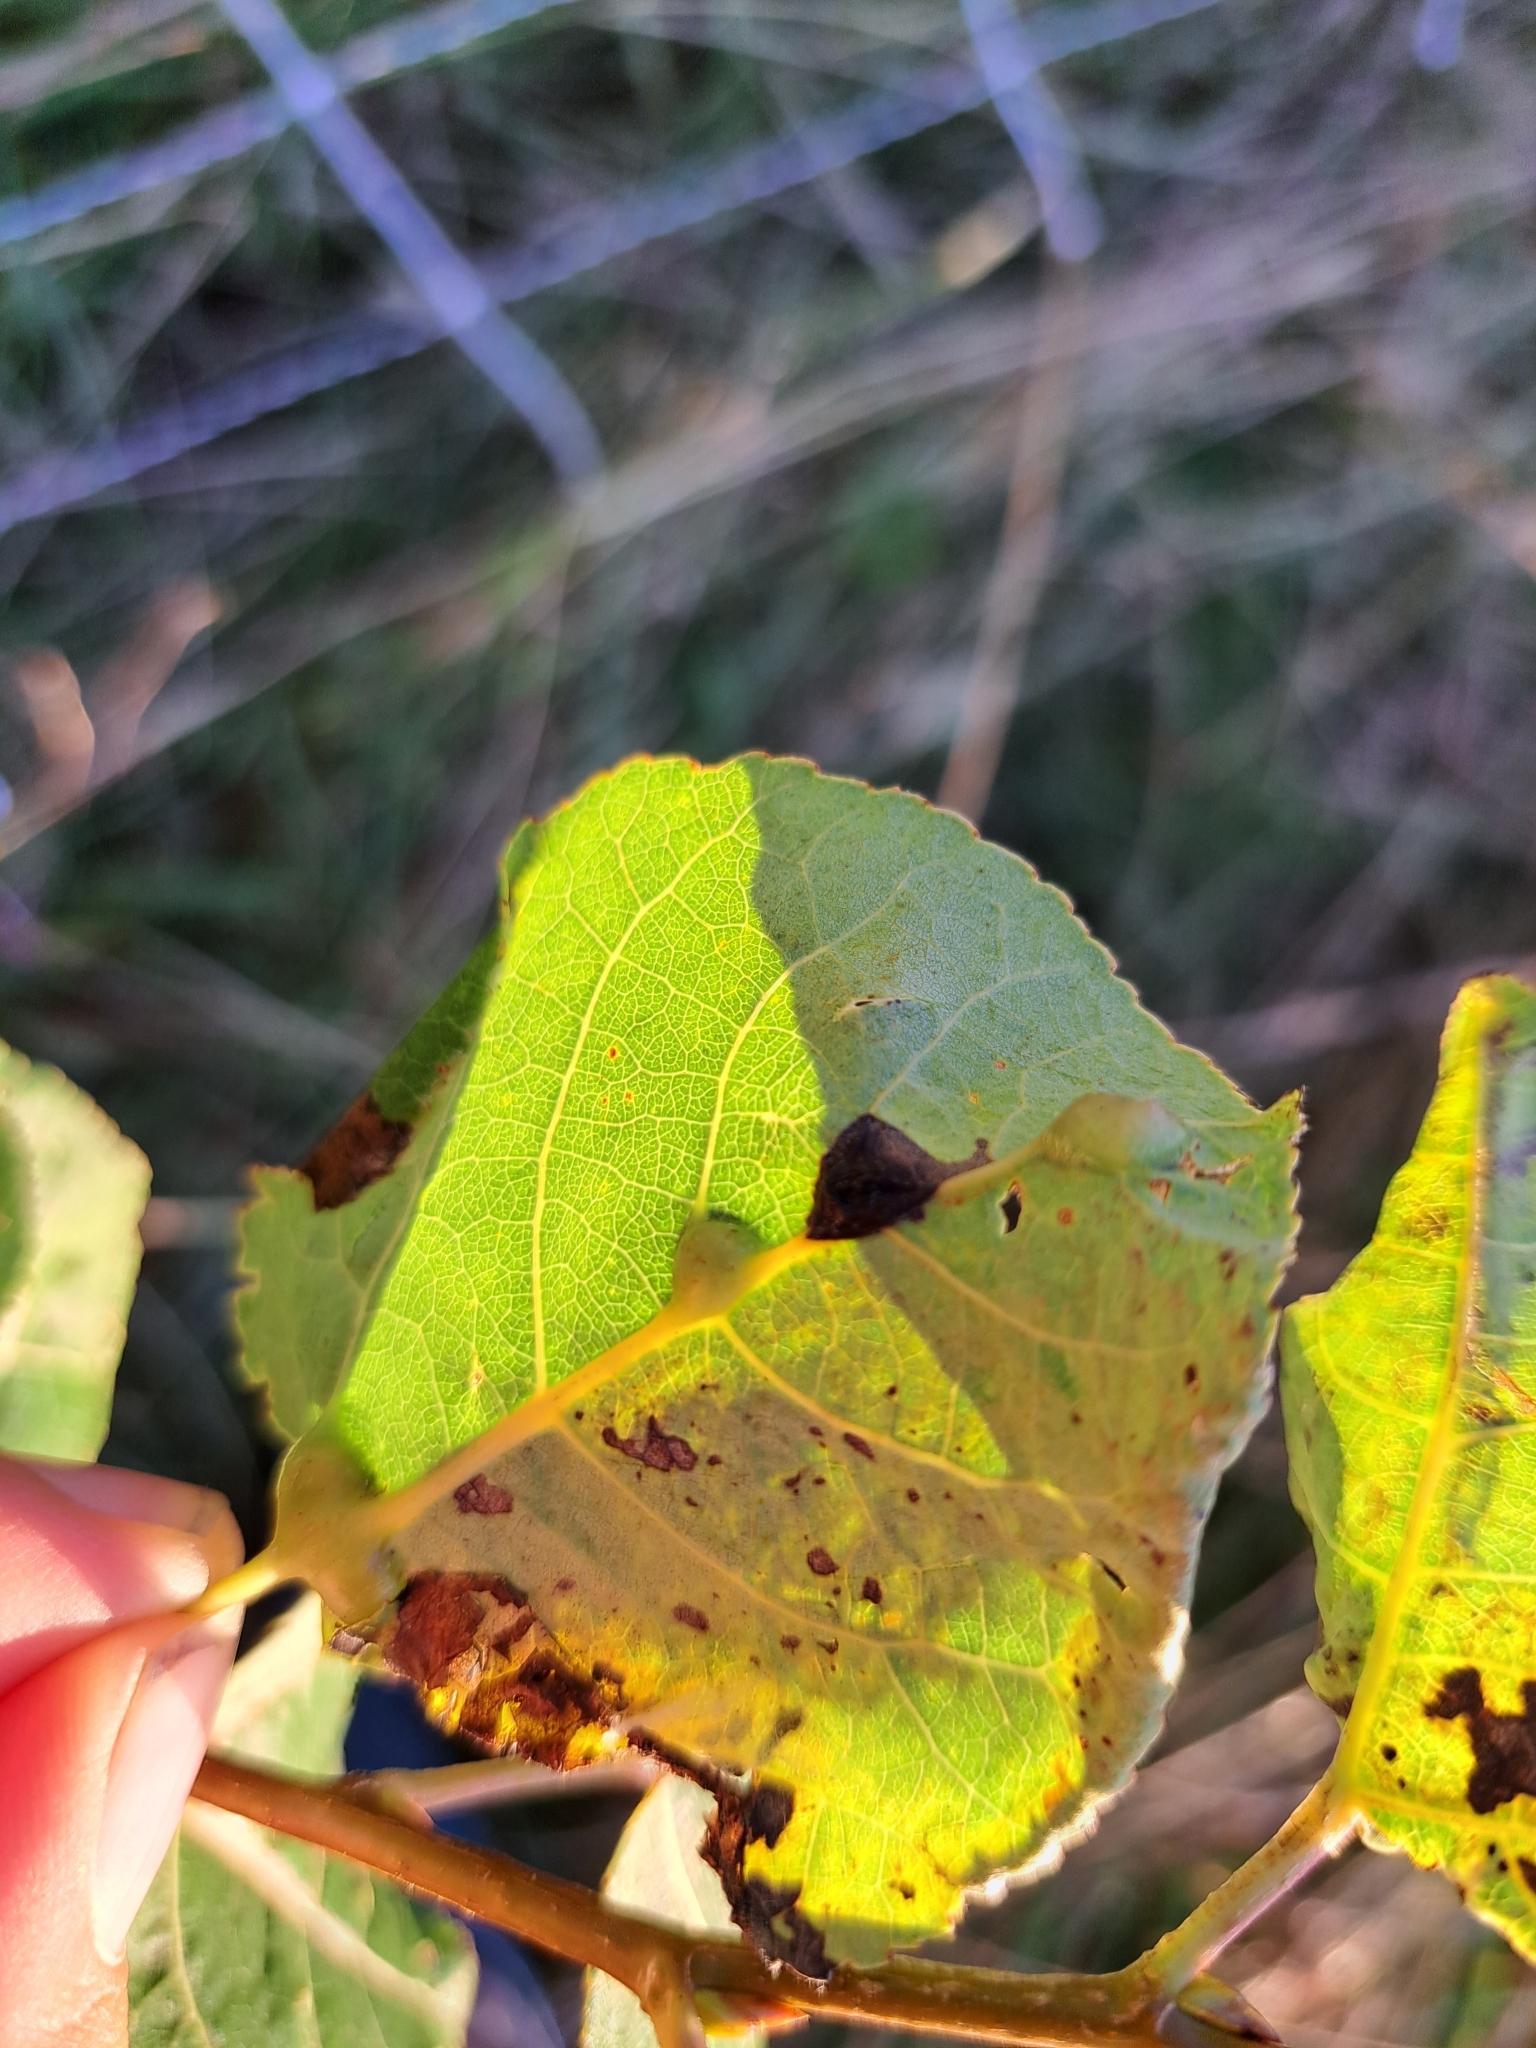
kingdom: Animalia
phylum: Arthropoda
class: Insecta
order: Lepidoptera
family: Gracillariidae
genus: Phyllocnistis
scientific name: Phyllocnistis populiella
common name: Aspen serpentine leafminer moth
